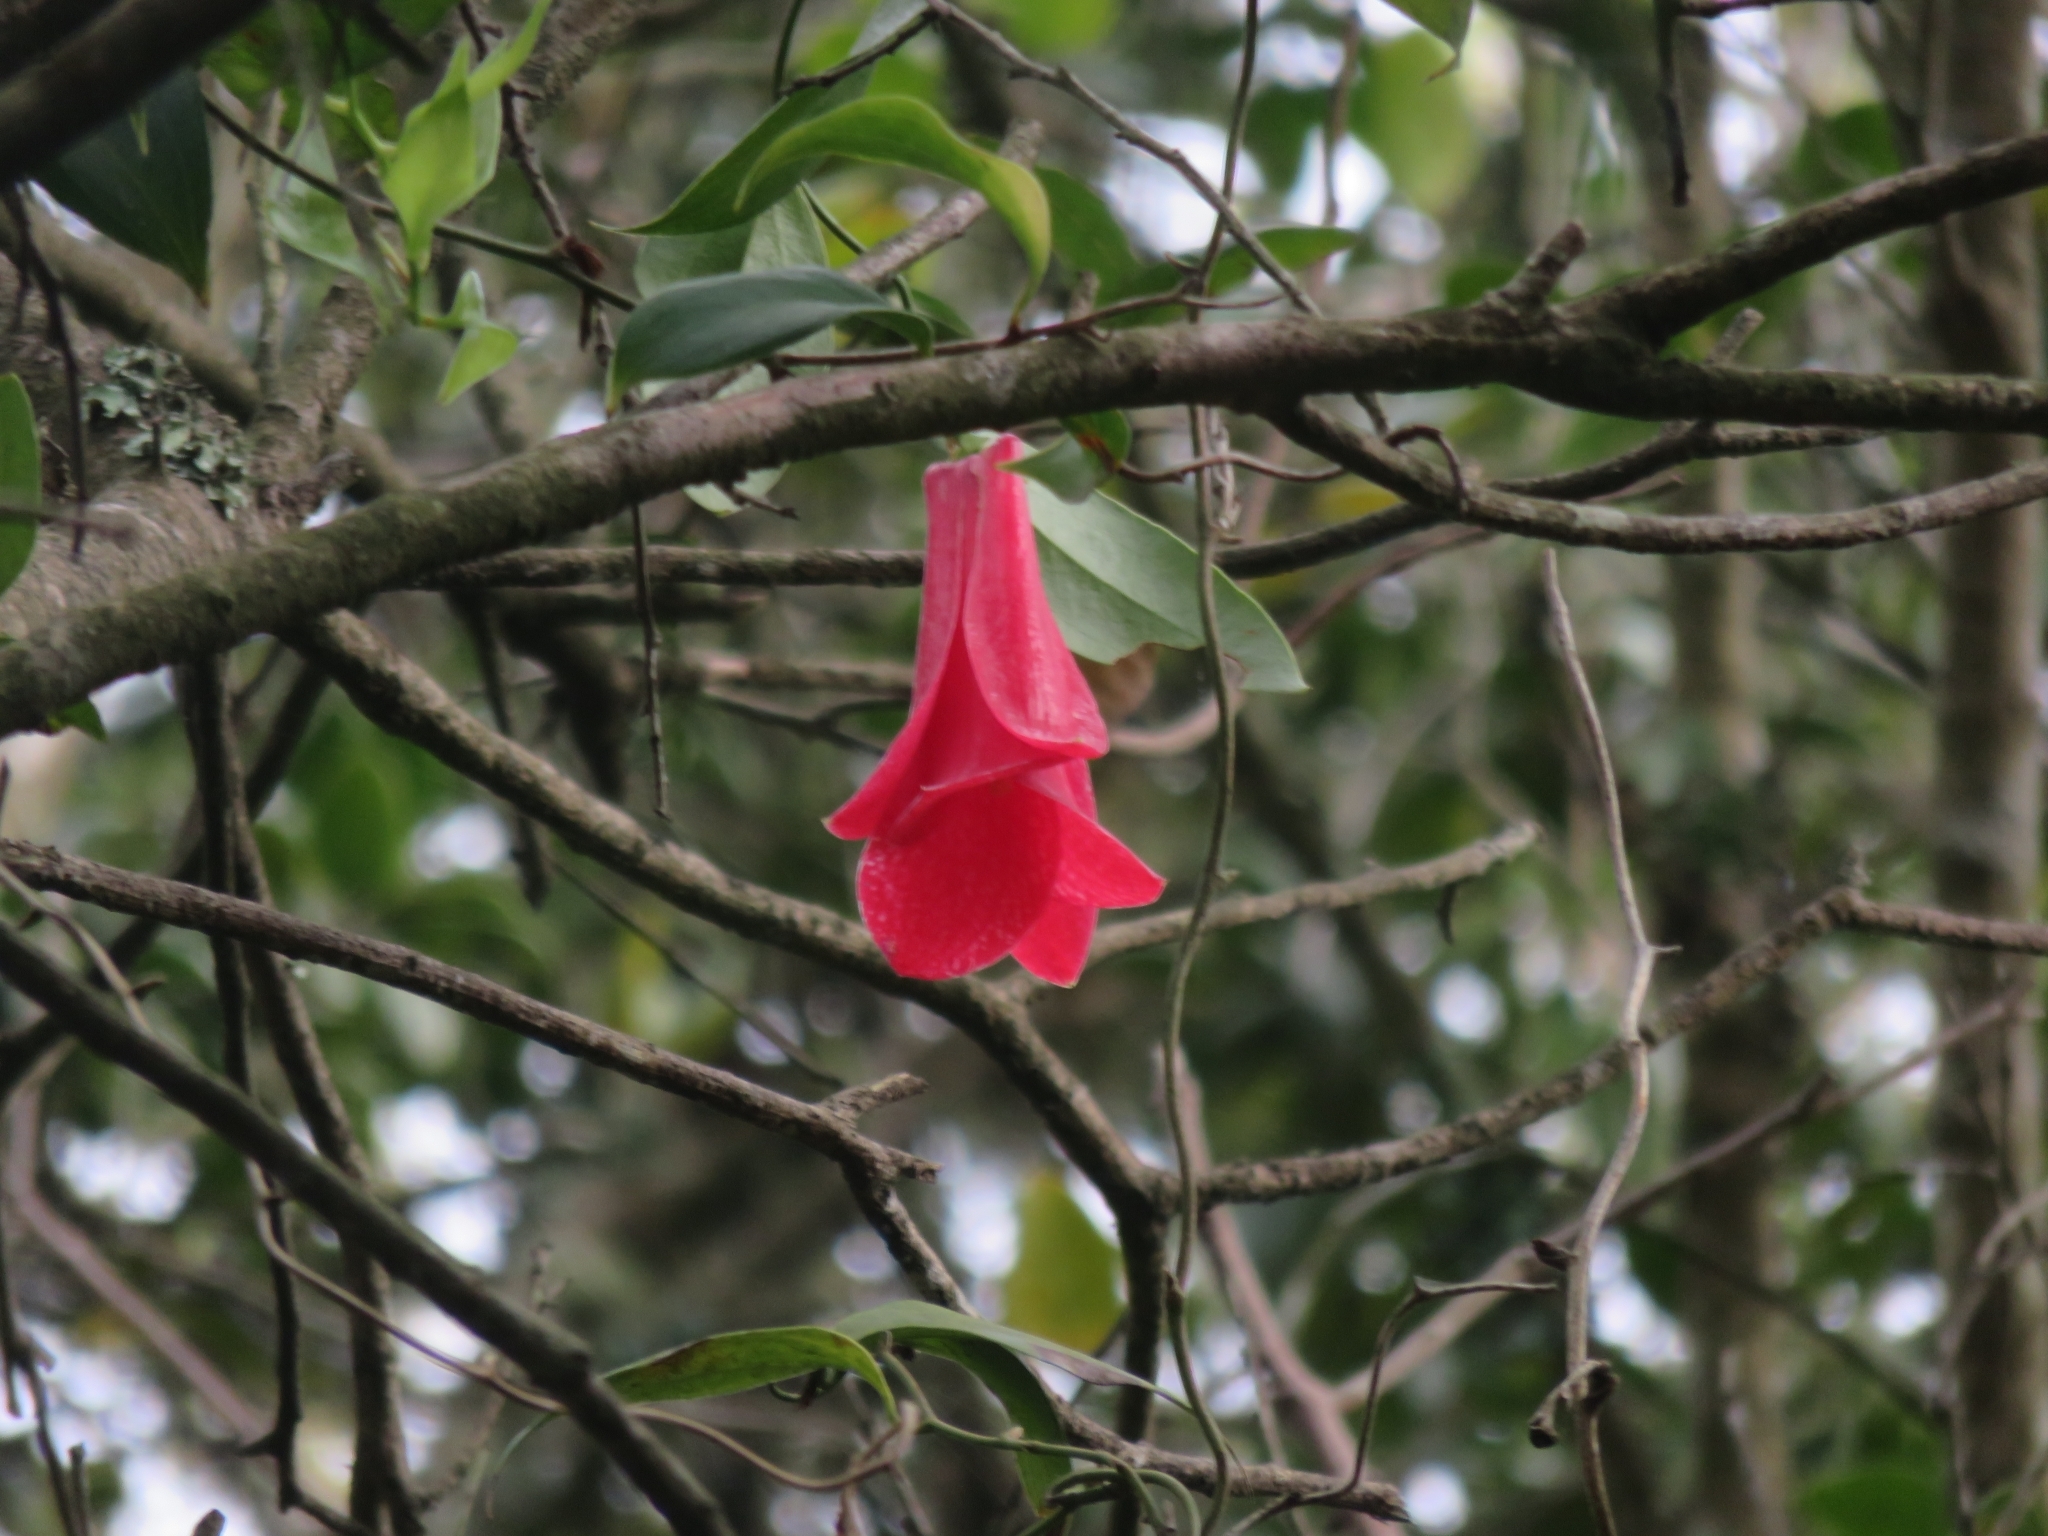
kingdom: Plantae
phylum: Tracheophyta
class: Liliopsida
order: Liliales
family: Philesiaceae
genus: Lapageria
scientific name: Lapageria rosea
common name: Chilean-bellflower
